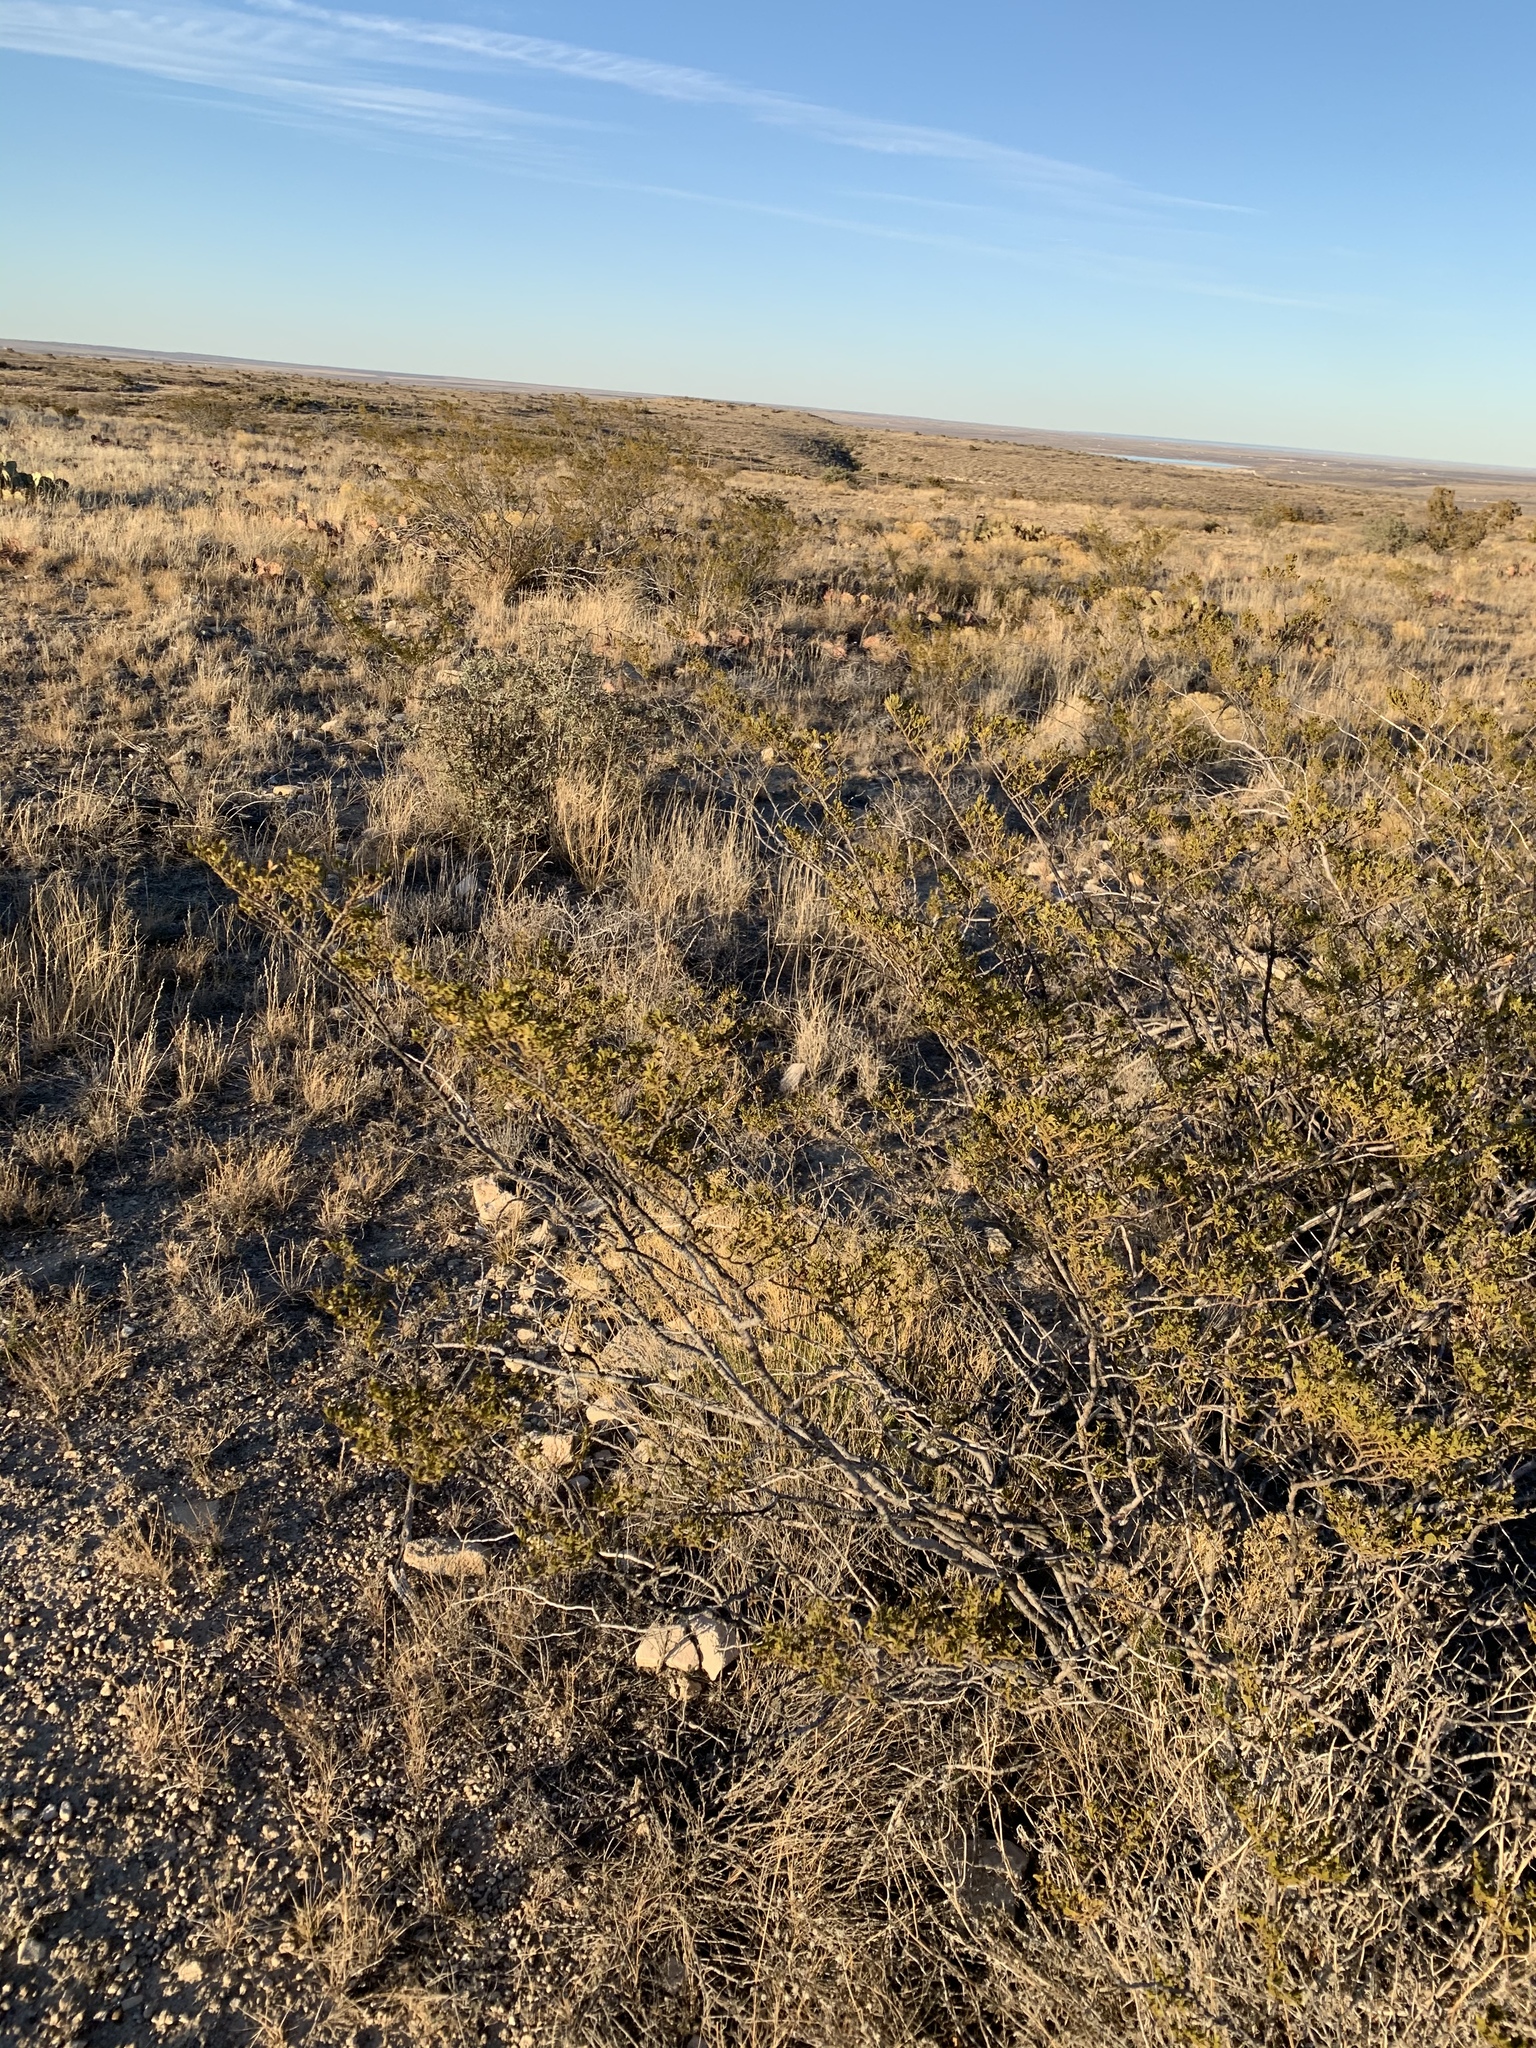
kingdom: Plantae
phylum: Tracheophyta
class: Magnoliopsida
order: Zygophyllales
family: Zygophyllaceae
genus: Larrea
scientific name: Larrea tridentata
